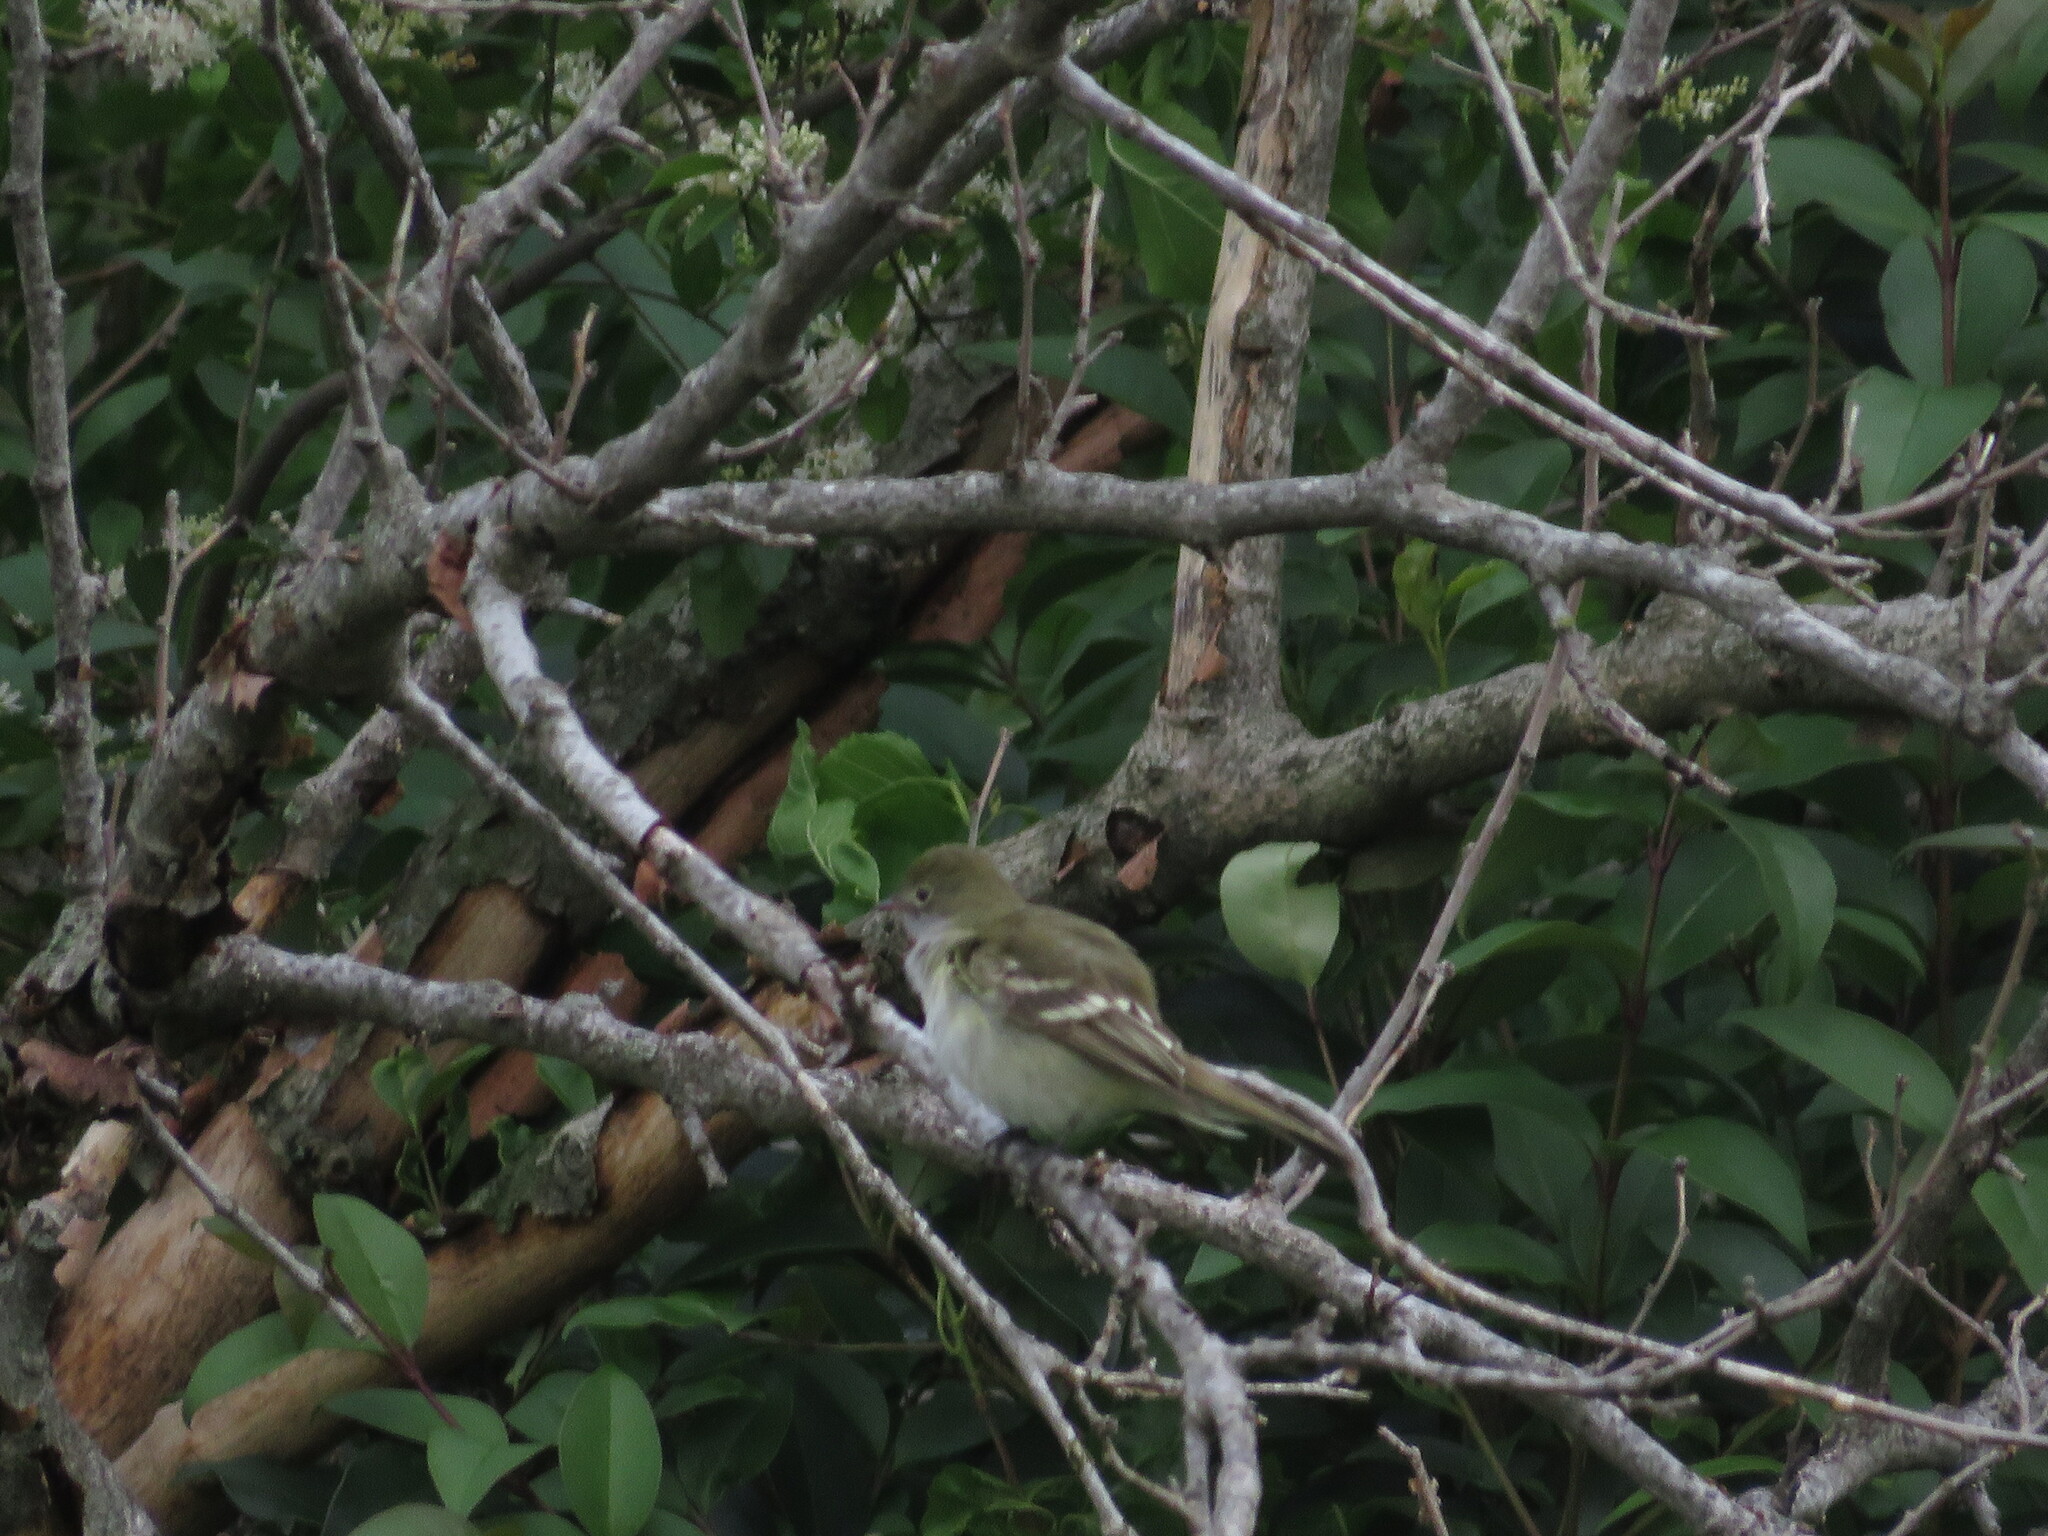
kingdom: Animalia
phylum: Chordata
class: Aves
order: Passeriformes
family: Tyrannidae
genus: Elaenia
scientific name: Elaenia parvirostris
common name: Small-billed elaenia
